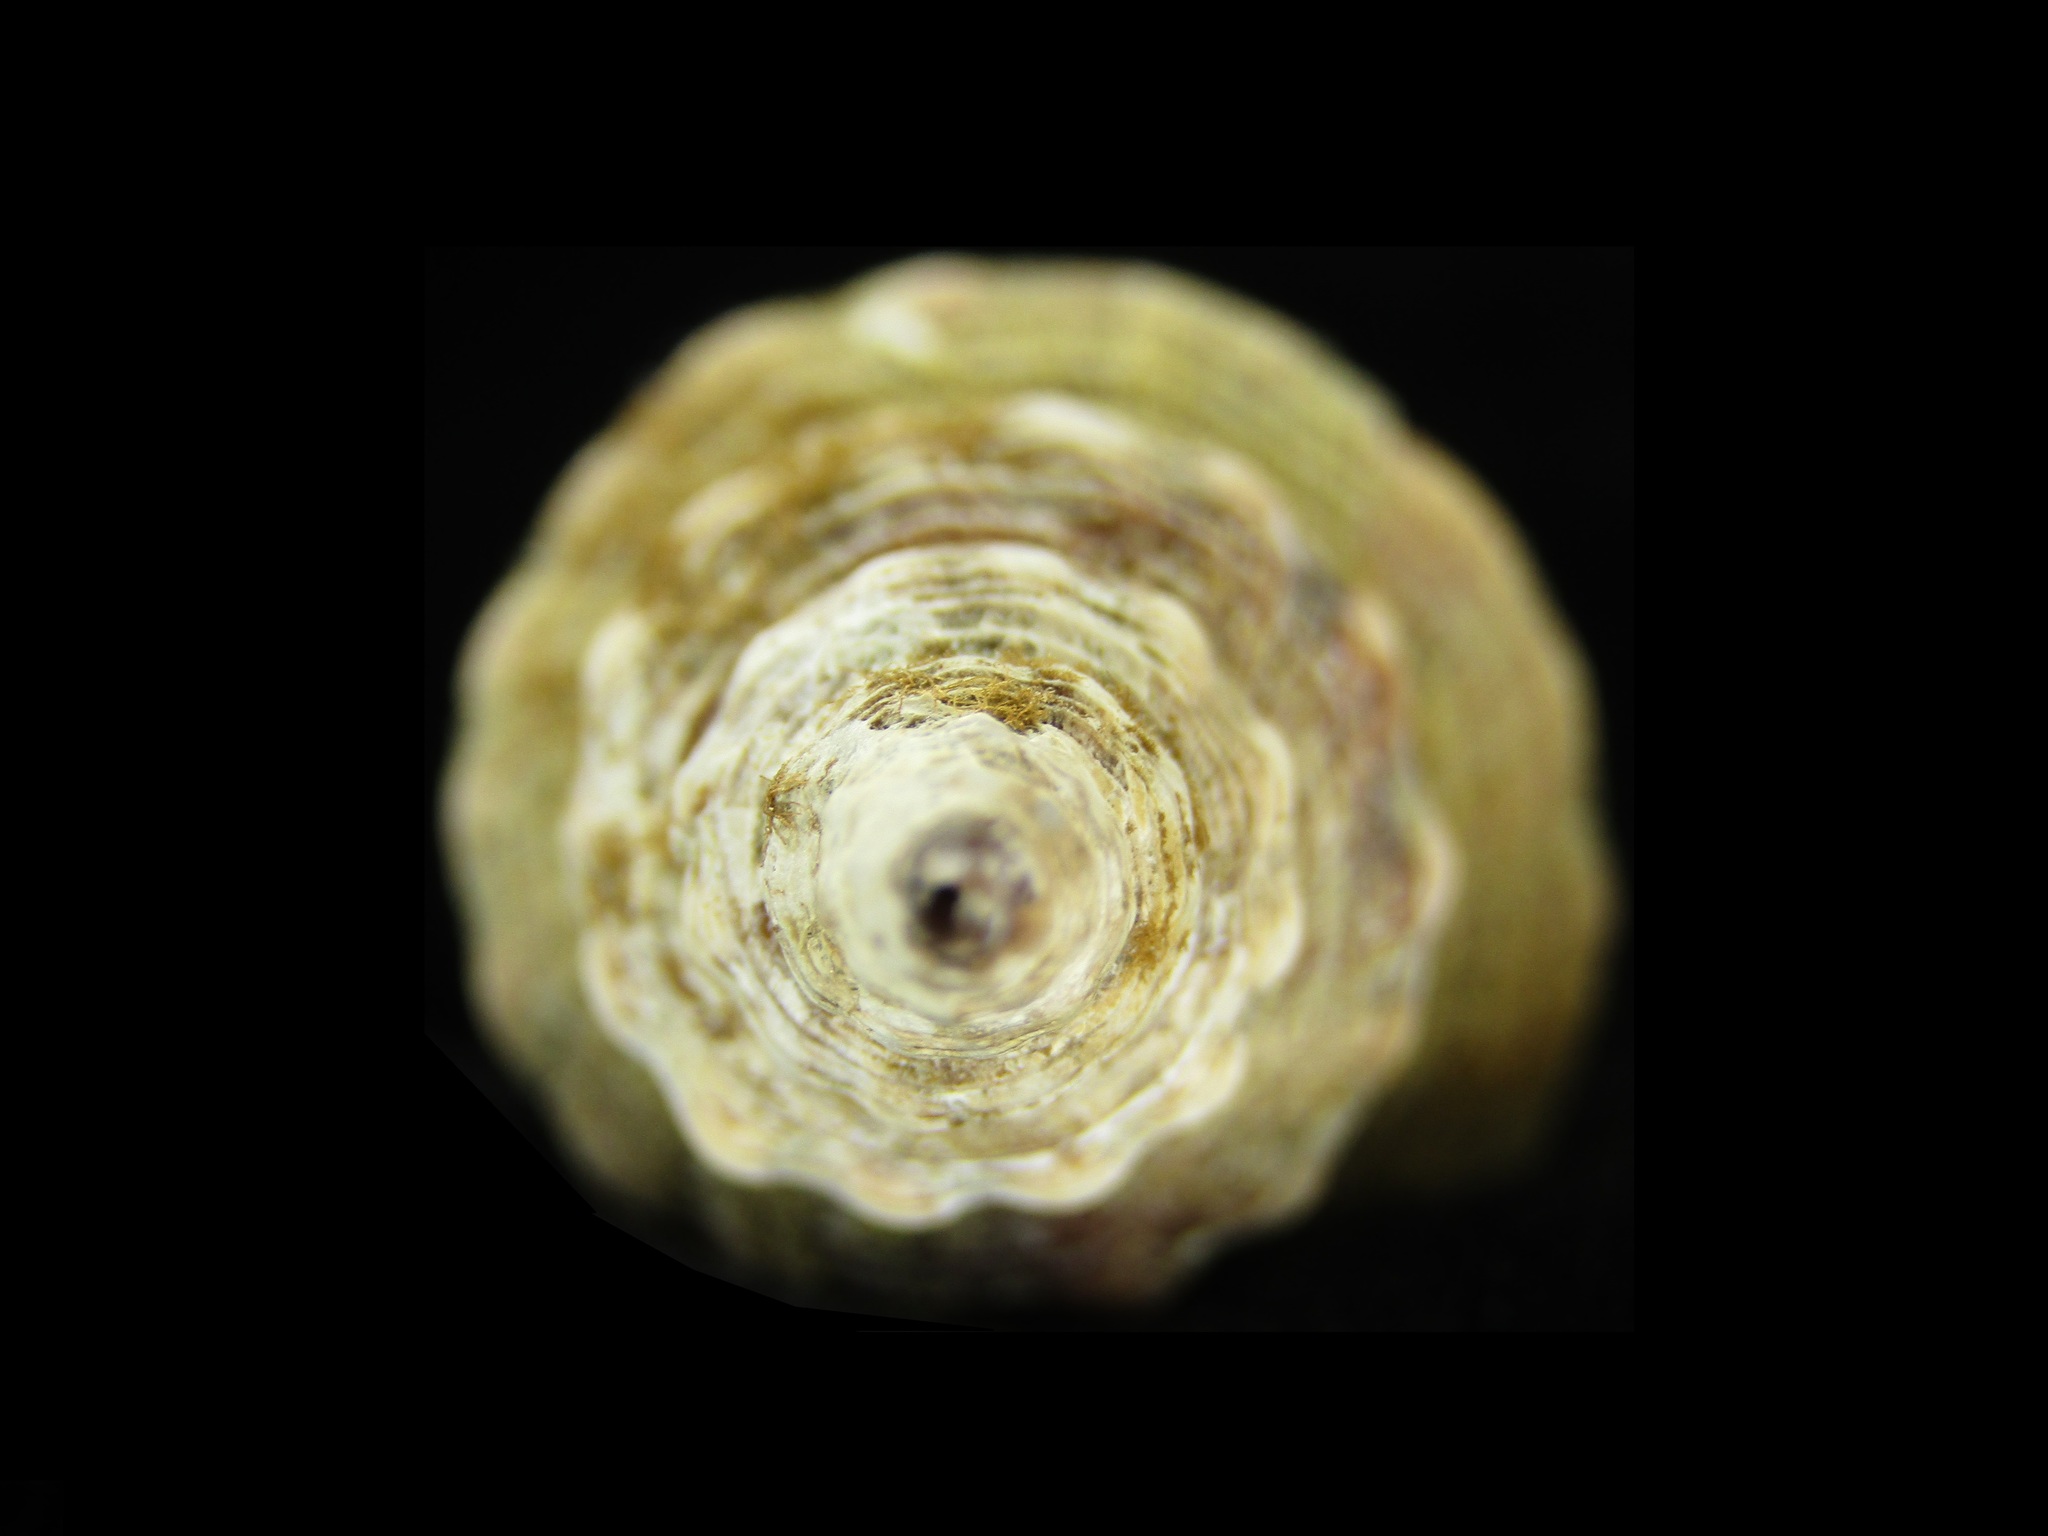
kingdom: Animalia
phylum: Mollusca
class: Gastropoda
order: Neogastropoda
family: Fasciolariidae
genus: Fusinus
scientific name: Fusinus perplexus
